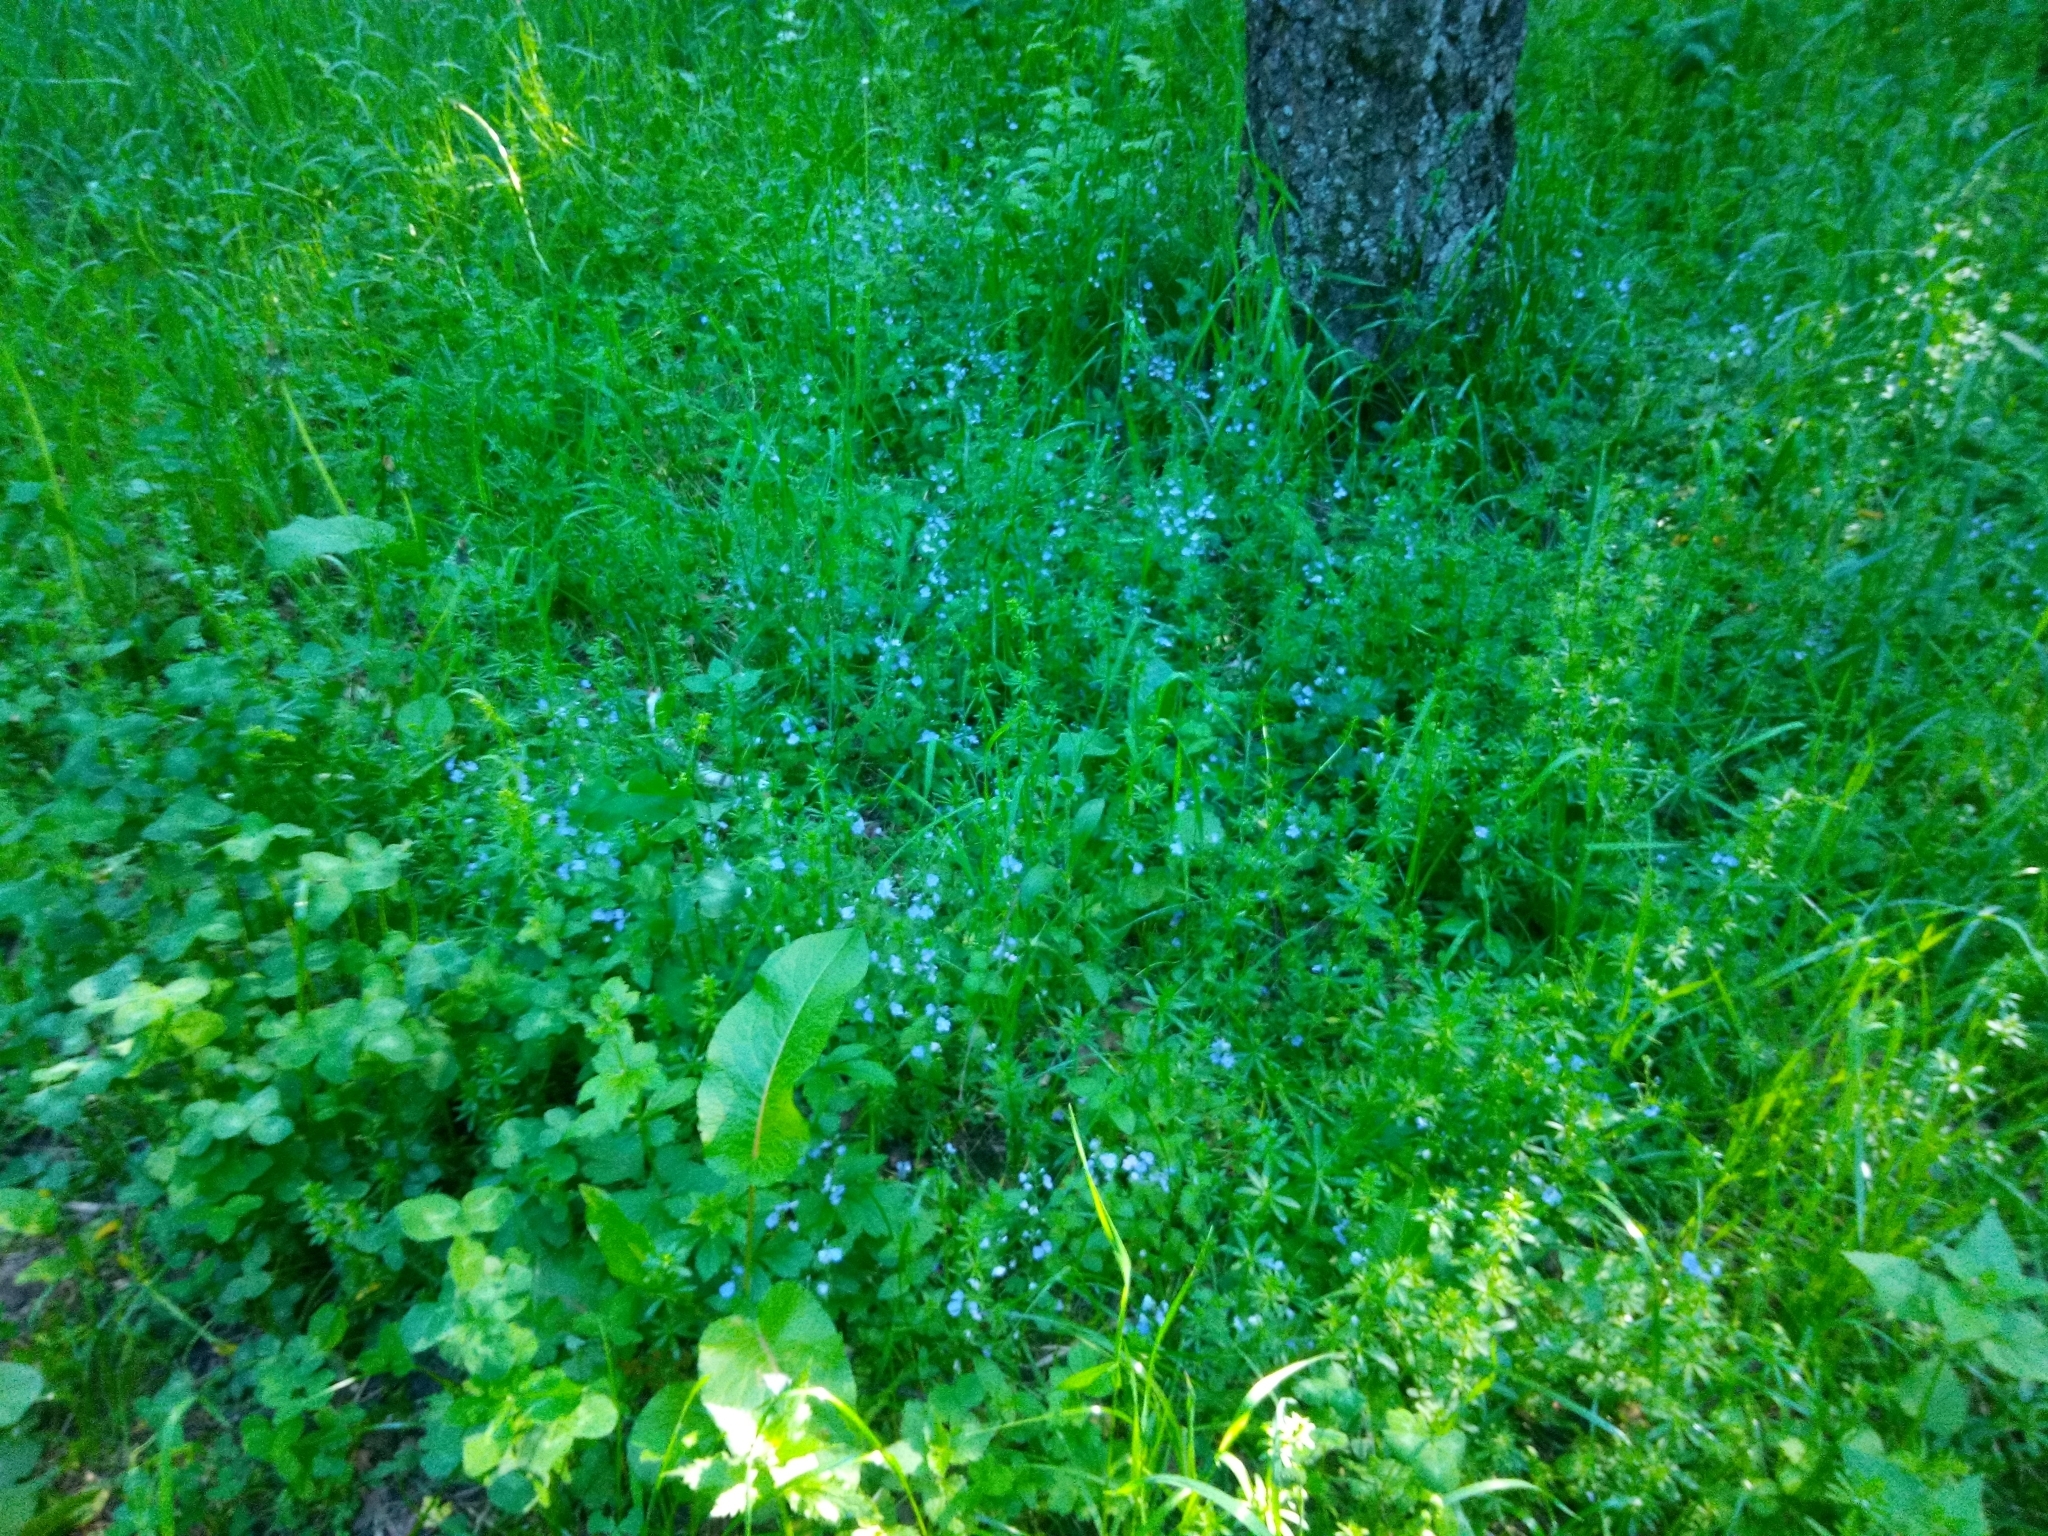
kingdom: Plantae
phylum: Tracheophyta
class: Magnoliopsida
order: Lamiales
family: Plantaginaceae
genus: Veronica
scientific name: Veronica chamaedrys
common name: Germander speedwell
